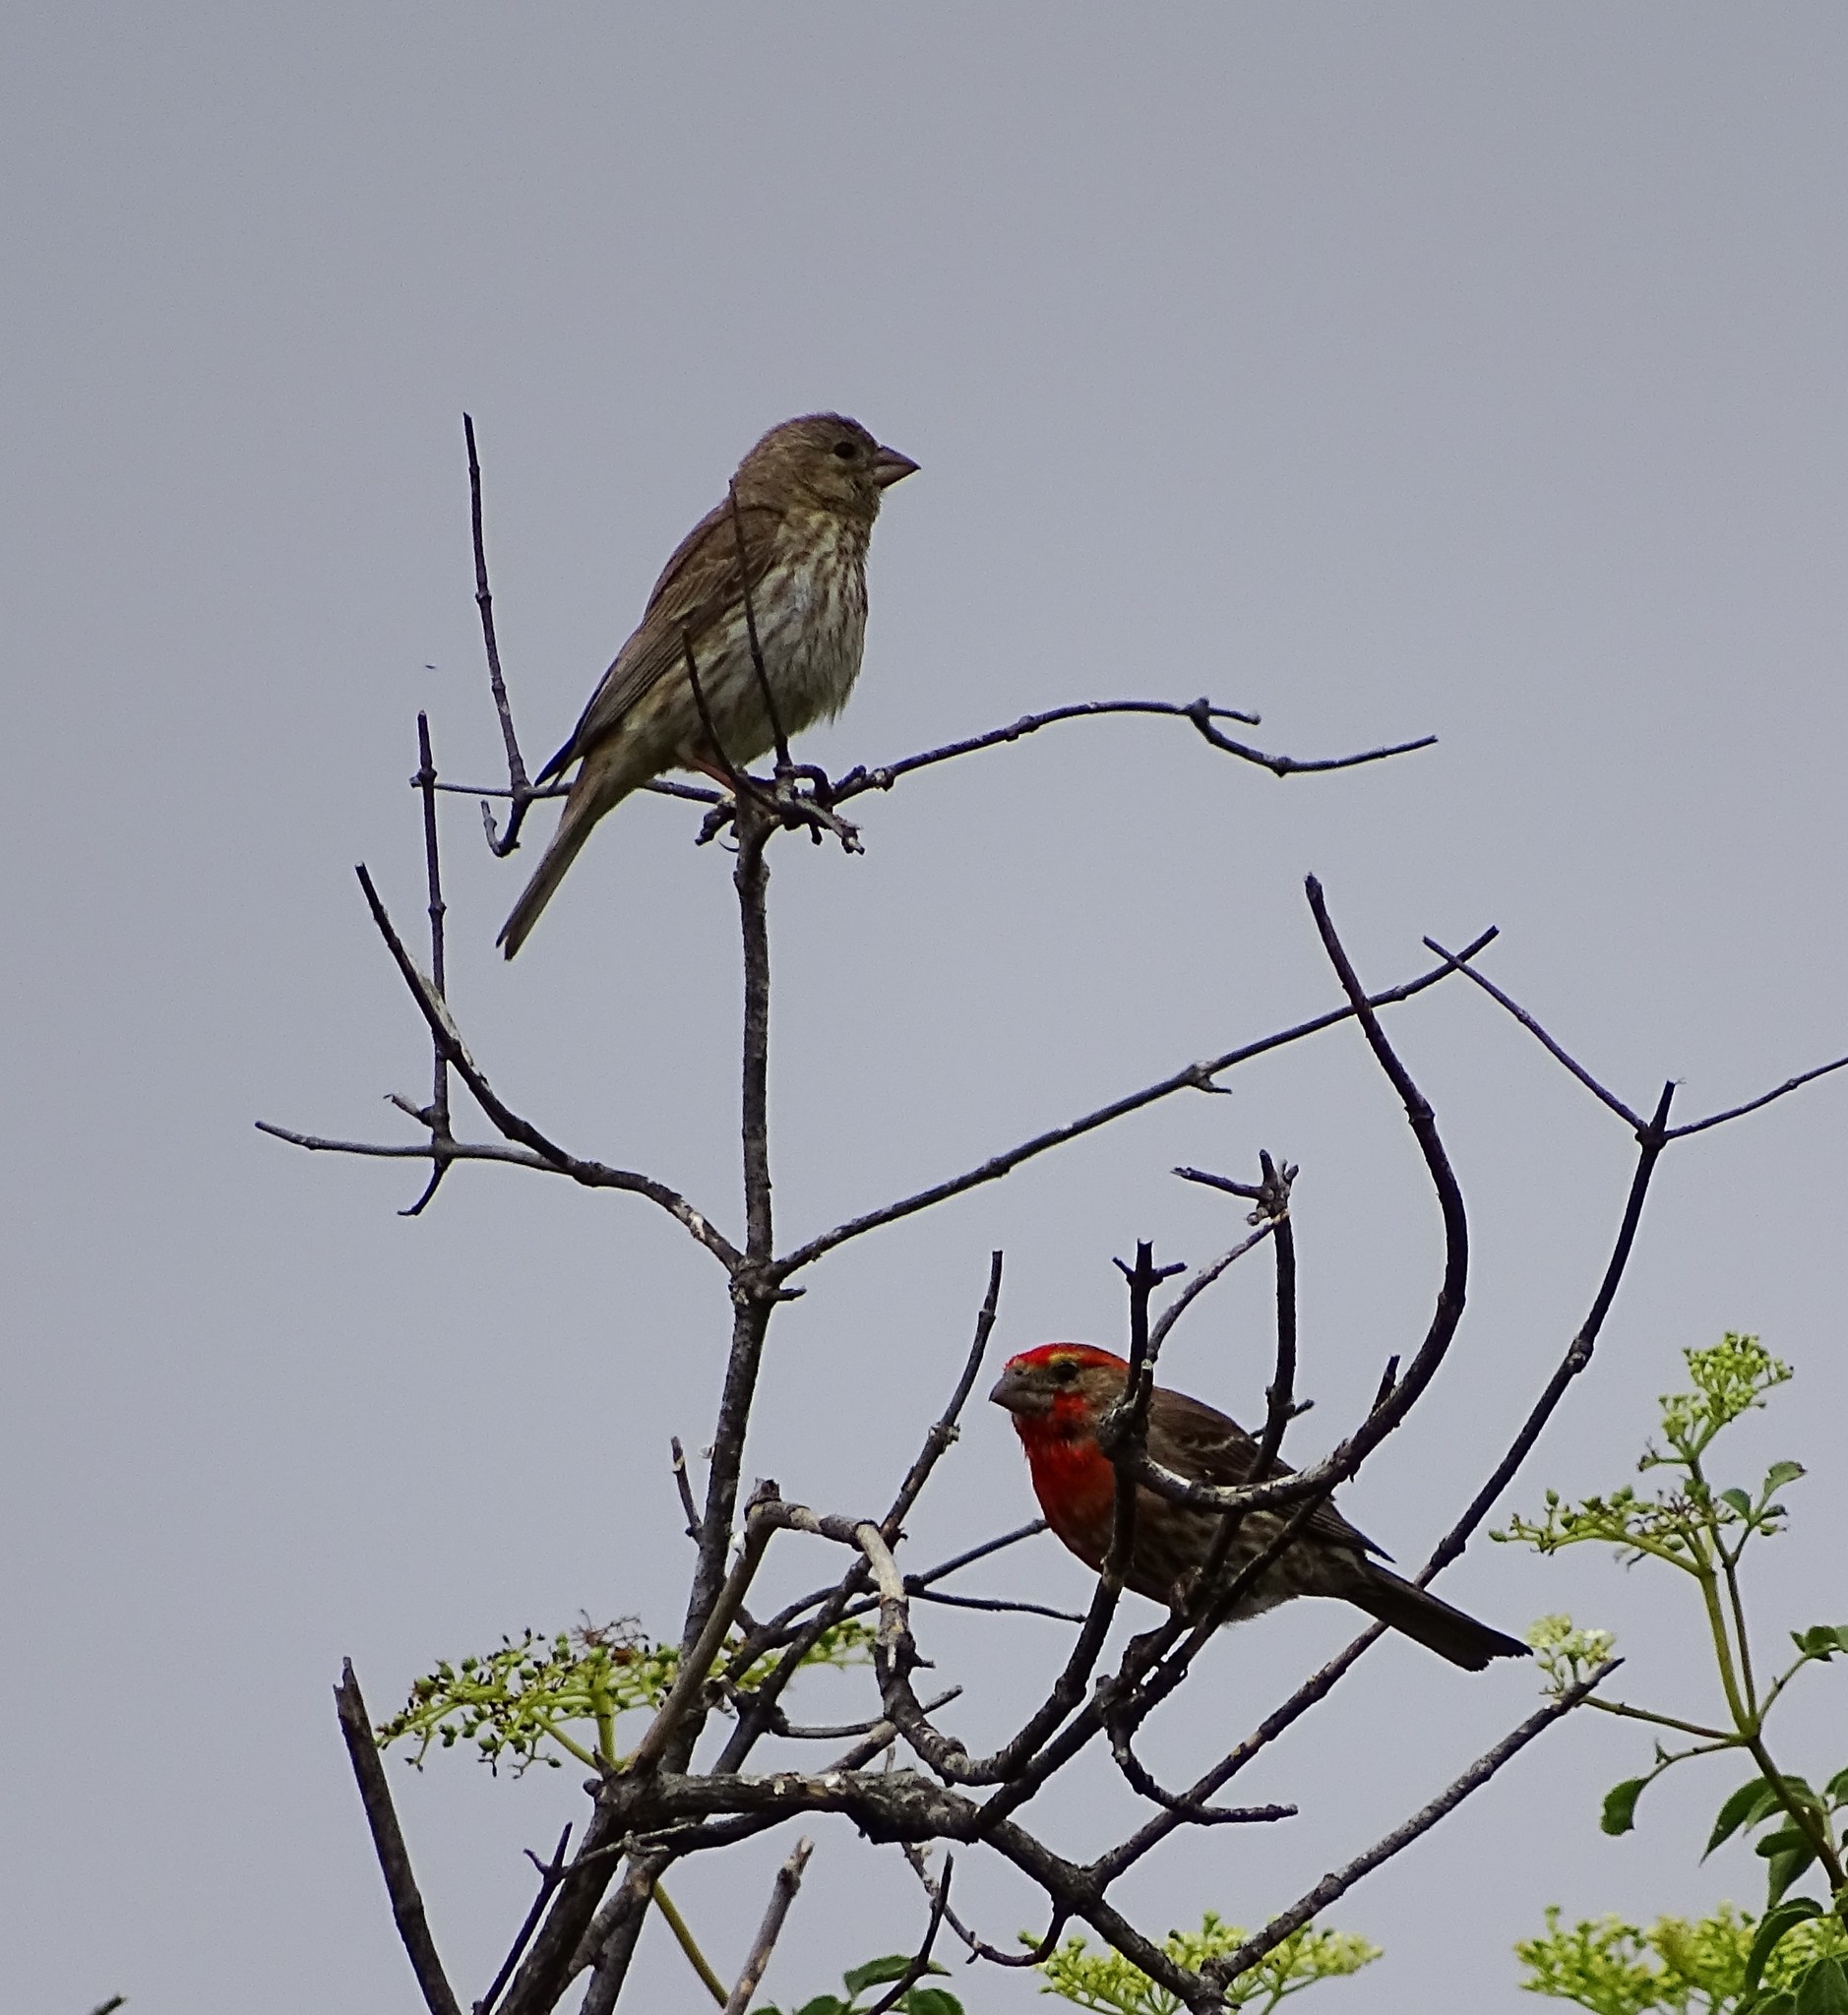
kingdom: Animalia
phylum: Chordata
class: Aves
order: Passeriformes
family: Fringillidae
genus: Haemorhous
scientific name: Haemorhous mexicanus
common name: House finch
